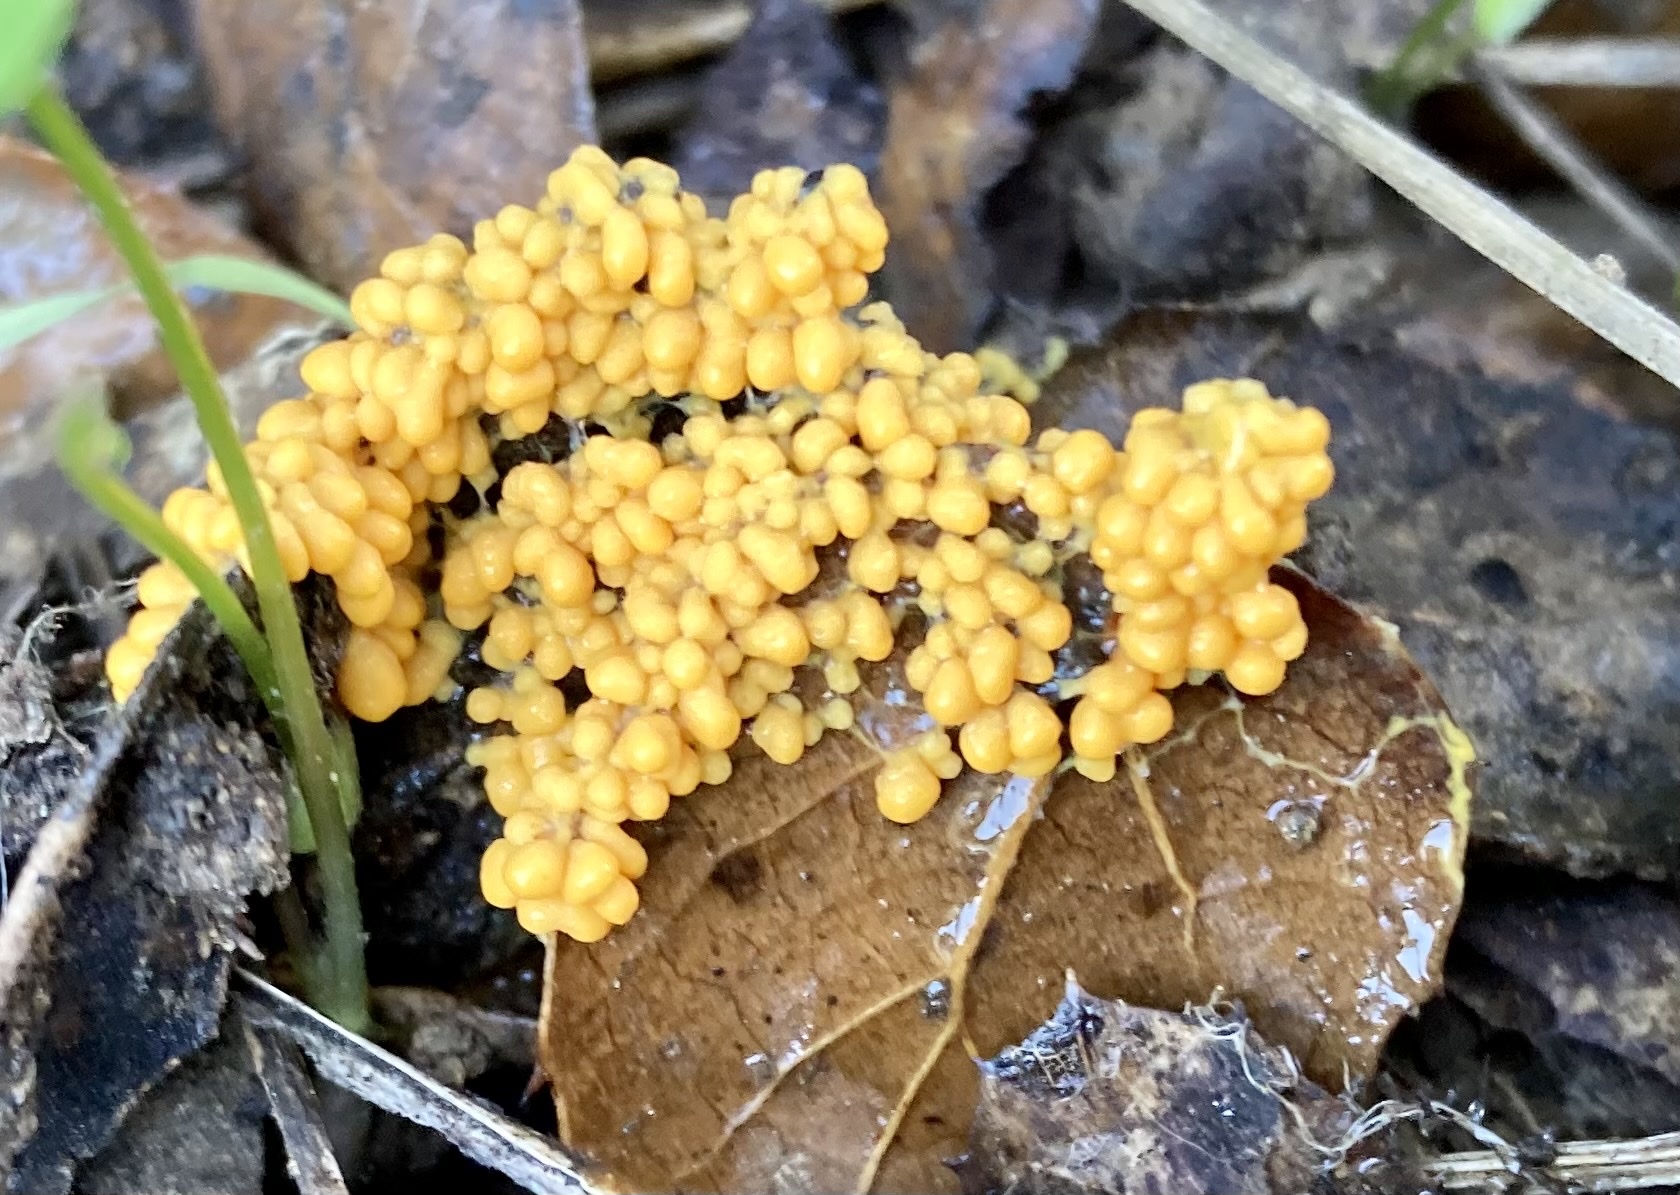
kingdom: Protozoa
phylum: Mycetozoa
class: Myxomycetes
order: Physarales
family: Physaraceae
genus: Leocarpus
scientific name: Leocarpus fragilis
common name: Insect-egg slime
